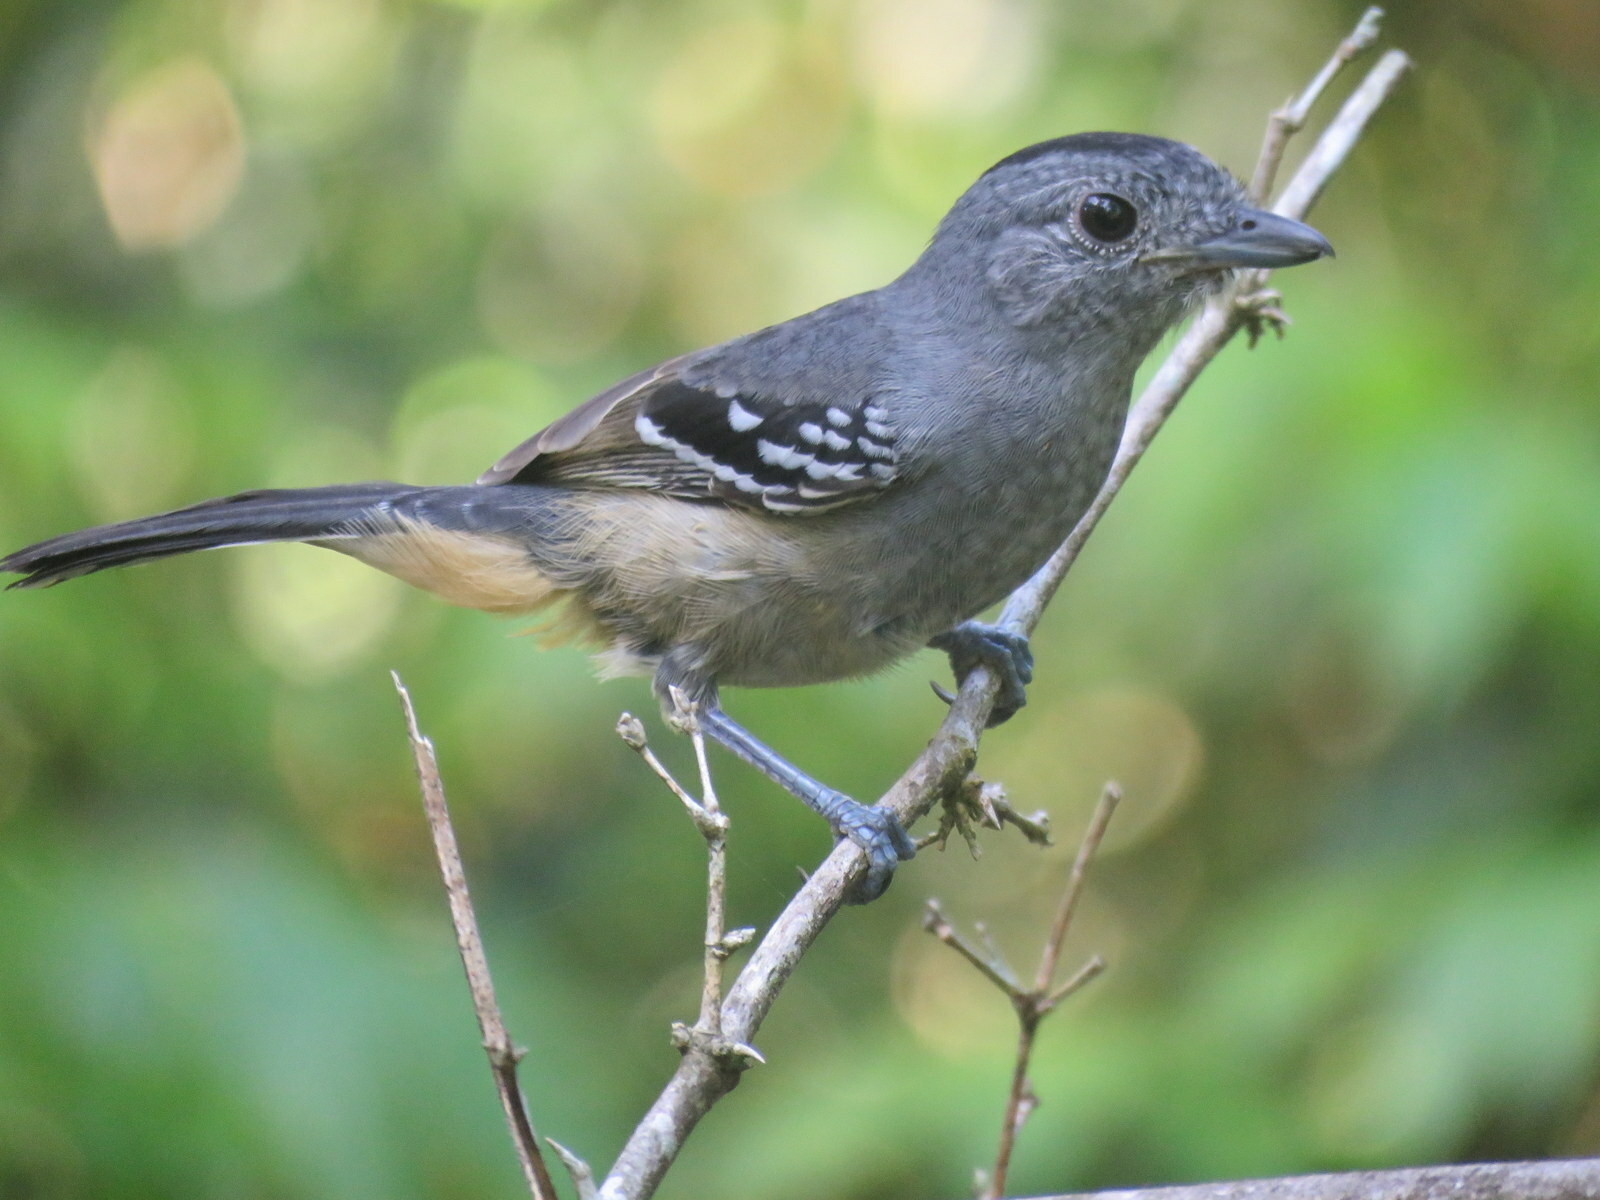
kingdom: Animalia
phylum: Chordata
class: Aves
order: Passeriformes
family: Thamnophilidae
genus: Thamnophilus
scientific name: Thamnophilus caerulescens
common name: Variable antshrike
